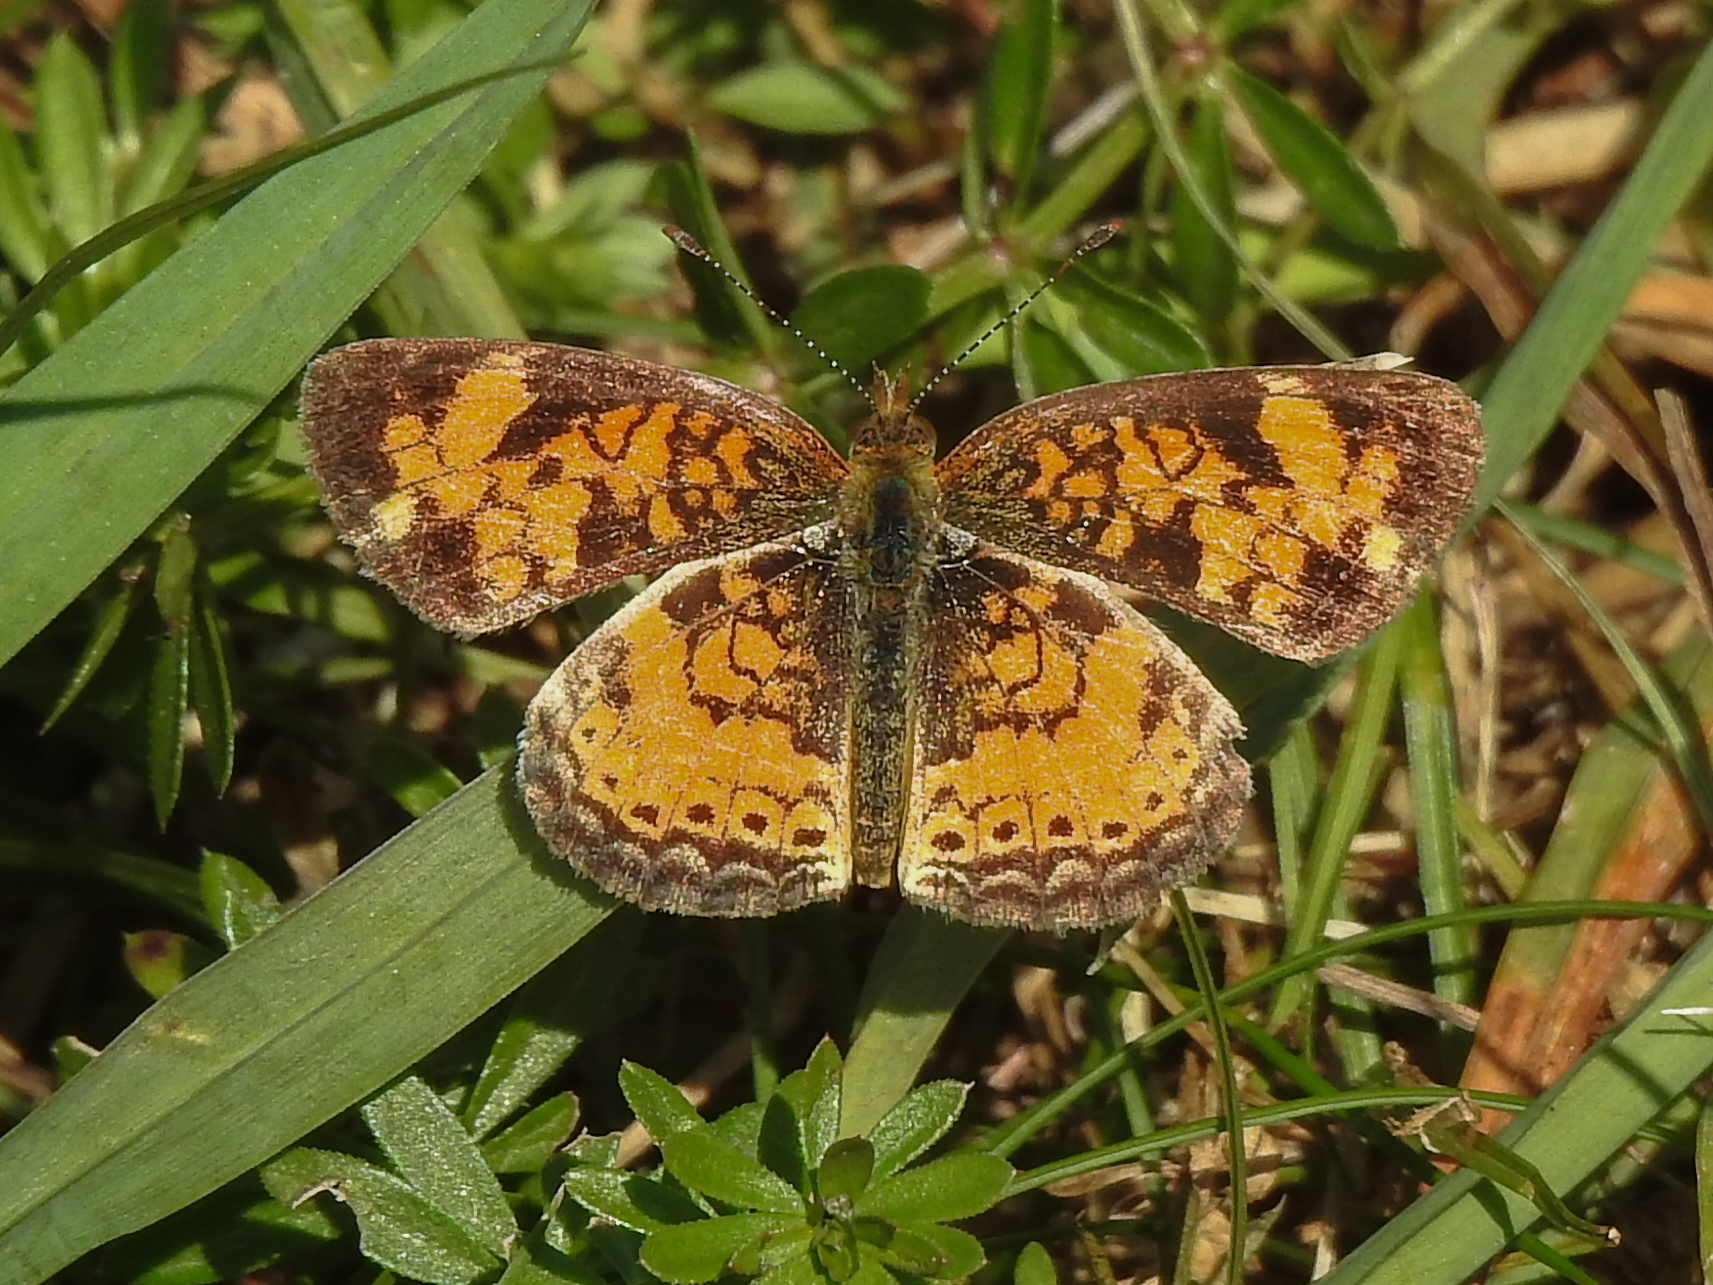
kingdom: Animalia
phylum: Arthropoda
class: Insecta
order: Lepidoptera
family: Nymphalidae
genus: Phyciodes
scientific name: Phyciodes tharos
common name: Pearl crescent
